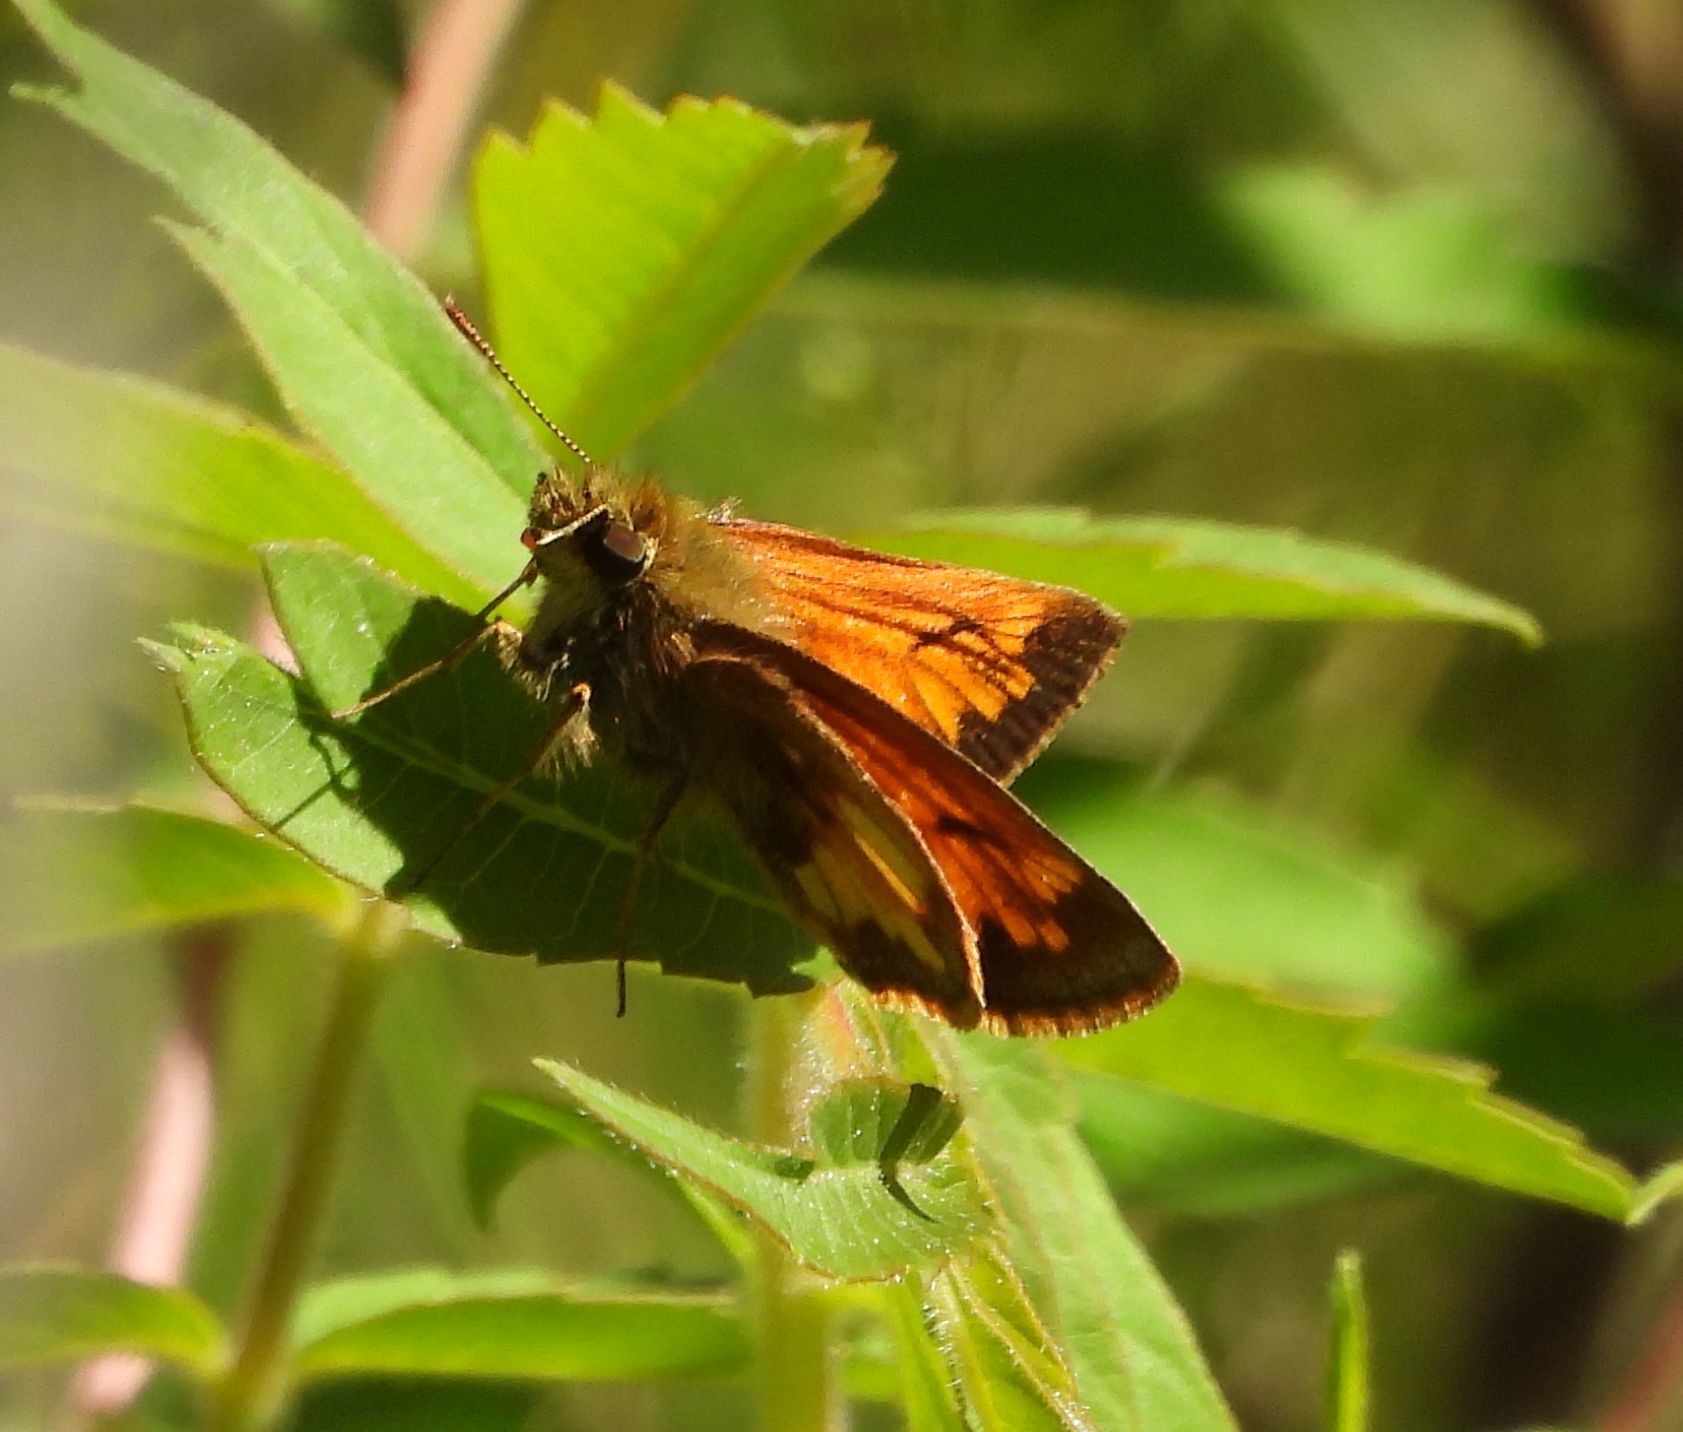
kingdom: Animalia
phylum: Arthropoda
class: Insecta
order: Lepidoptera
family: Hesperiidae
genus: Lon
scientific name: Lon hobomok
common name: Hobomok skipper
